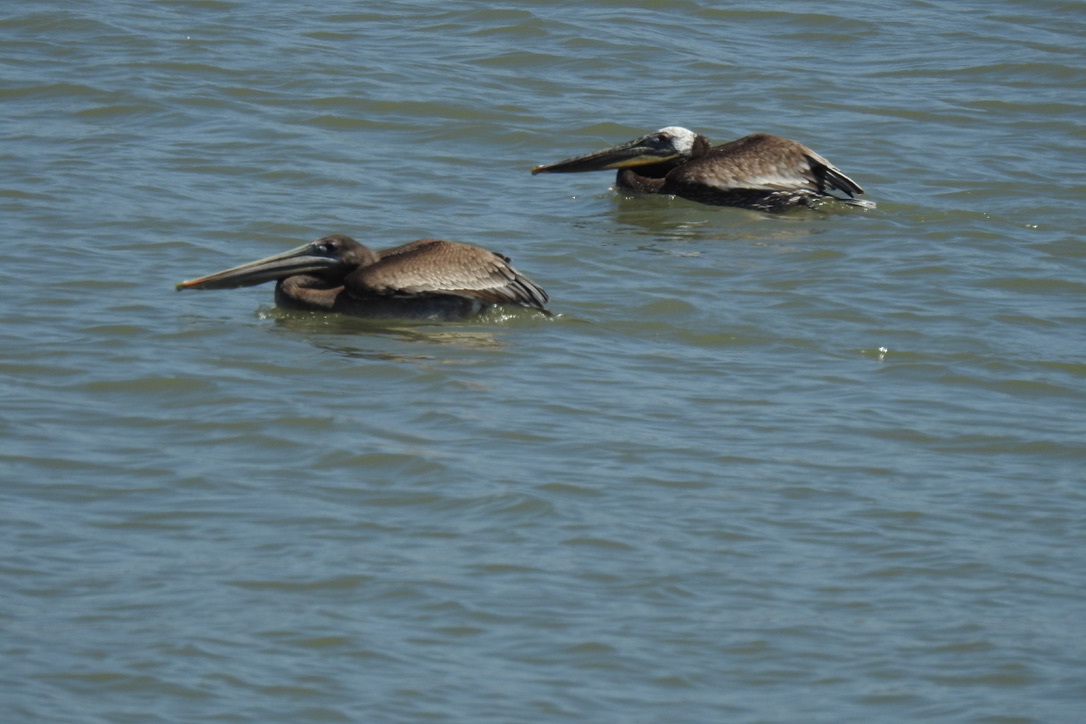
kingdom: Animalia
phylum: Chordata
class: Aves
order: Pelecaniformes
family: Pelecanidae
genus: Pelecanus
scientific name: Pelecanus occidentalis
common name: Brown pelican
